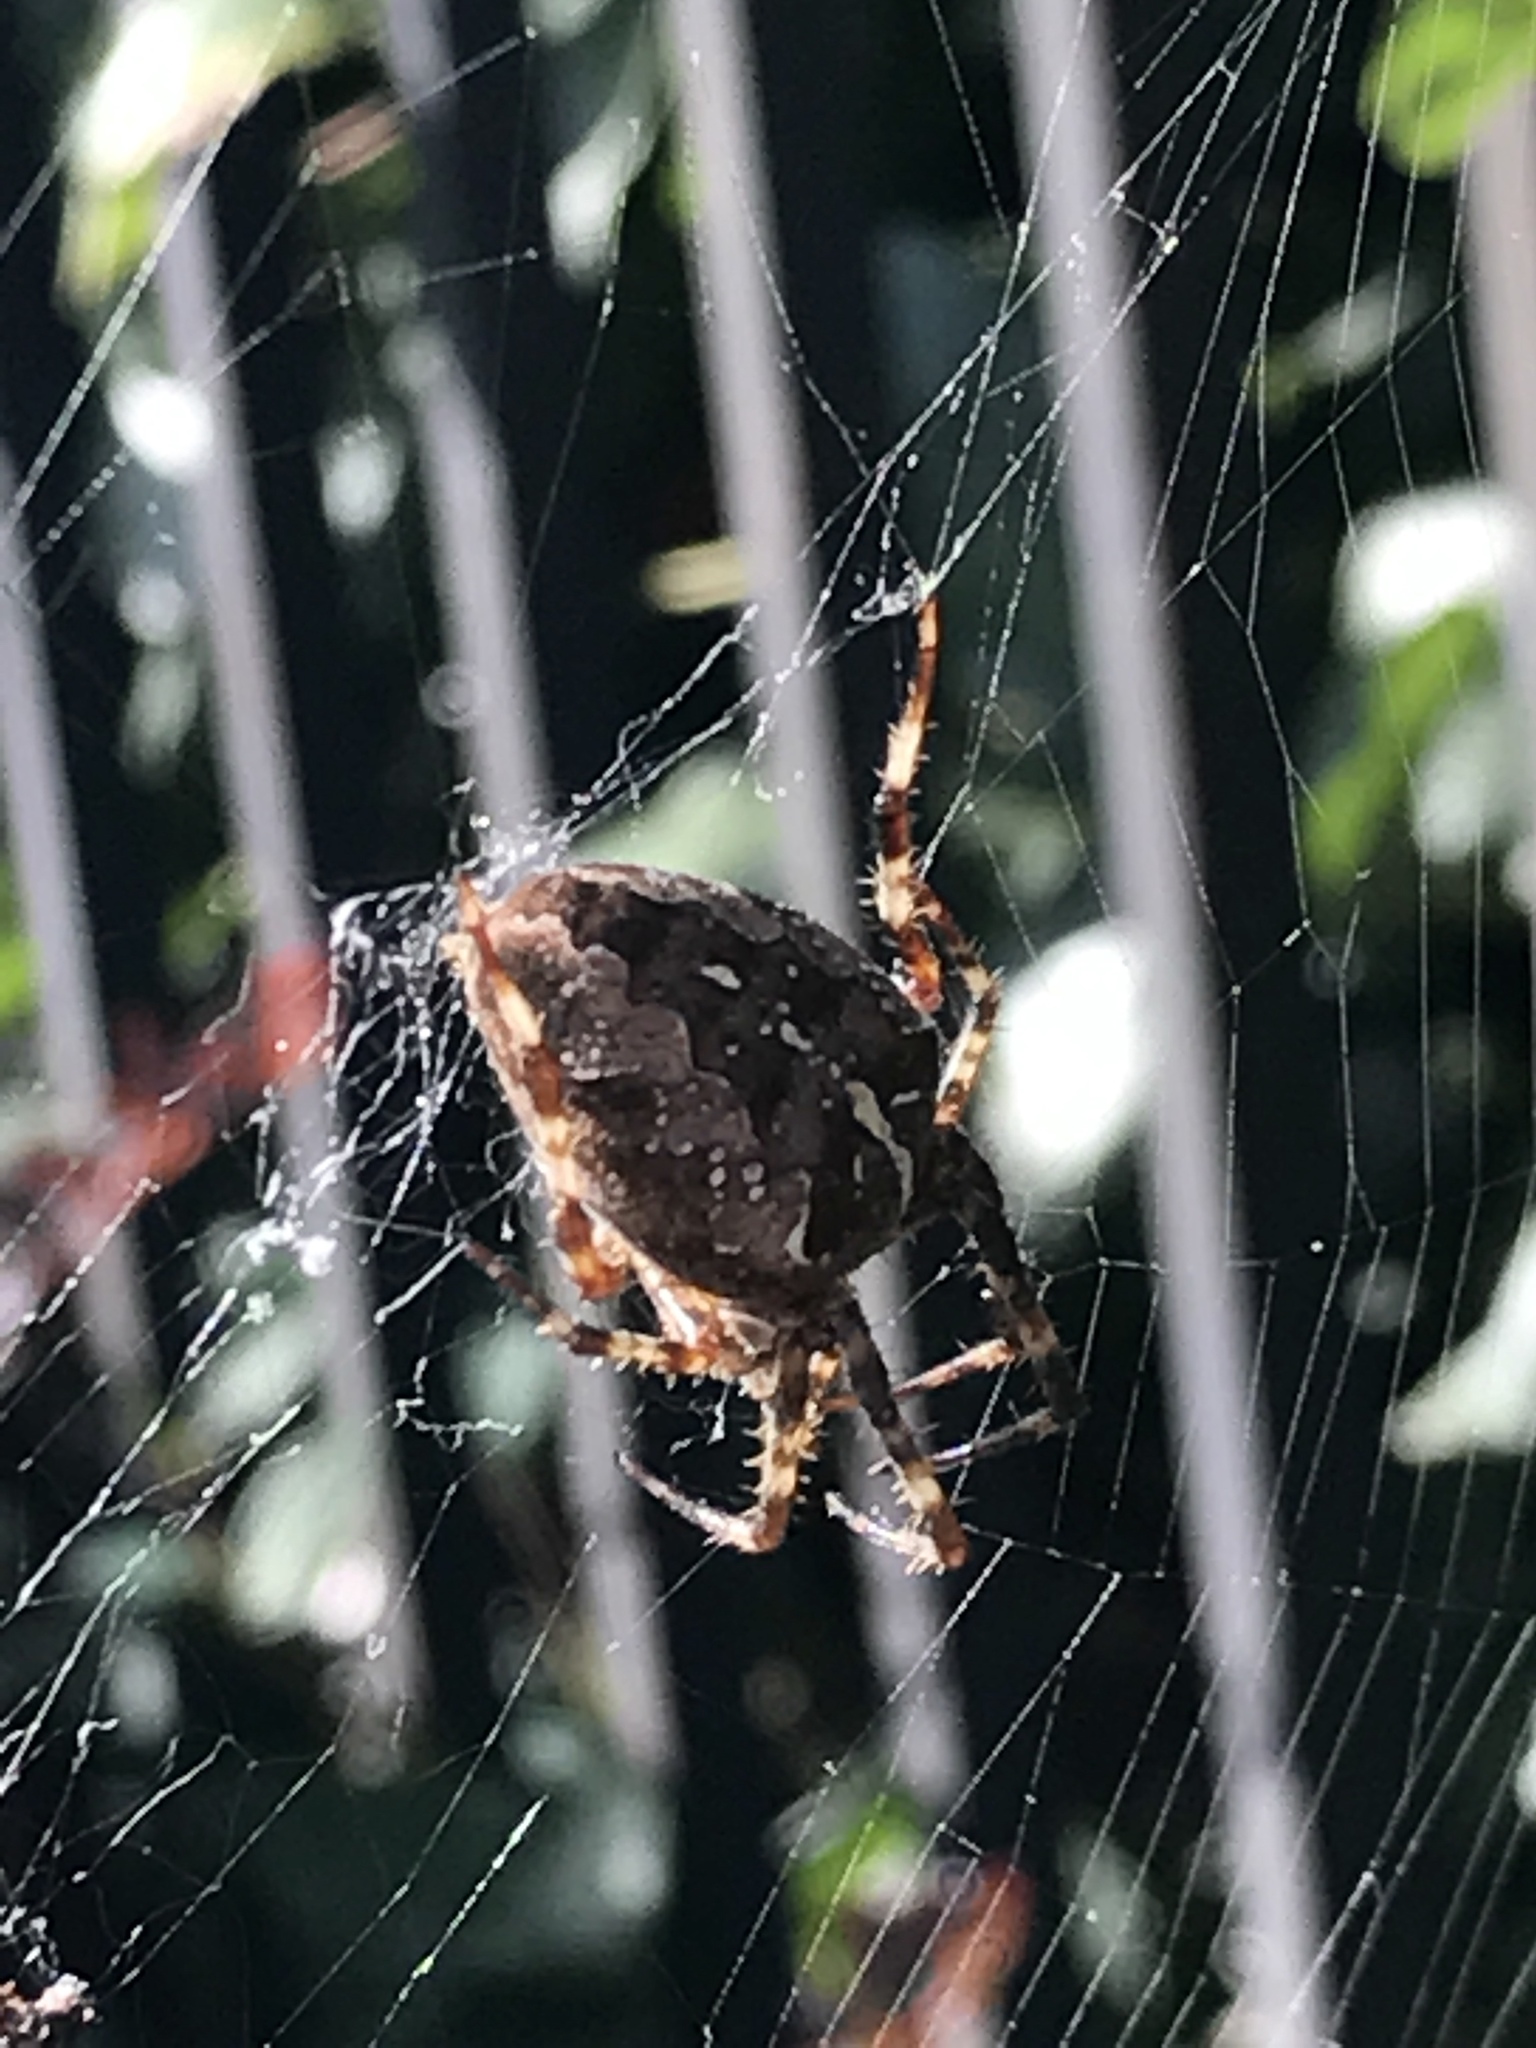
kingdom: Animalia
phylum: Arthropoda
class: Arachnida
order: Araneae
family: Araneidae
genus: Araneus
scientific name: Araneus diadematus
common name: Cross orbweaver
